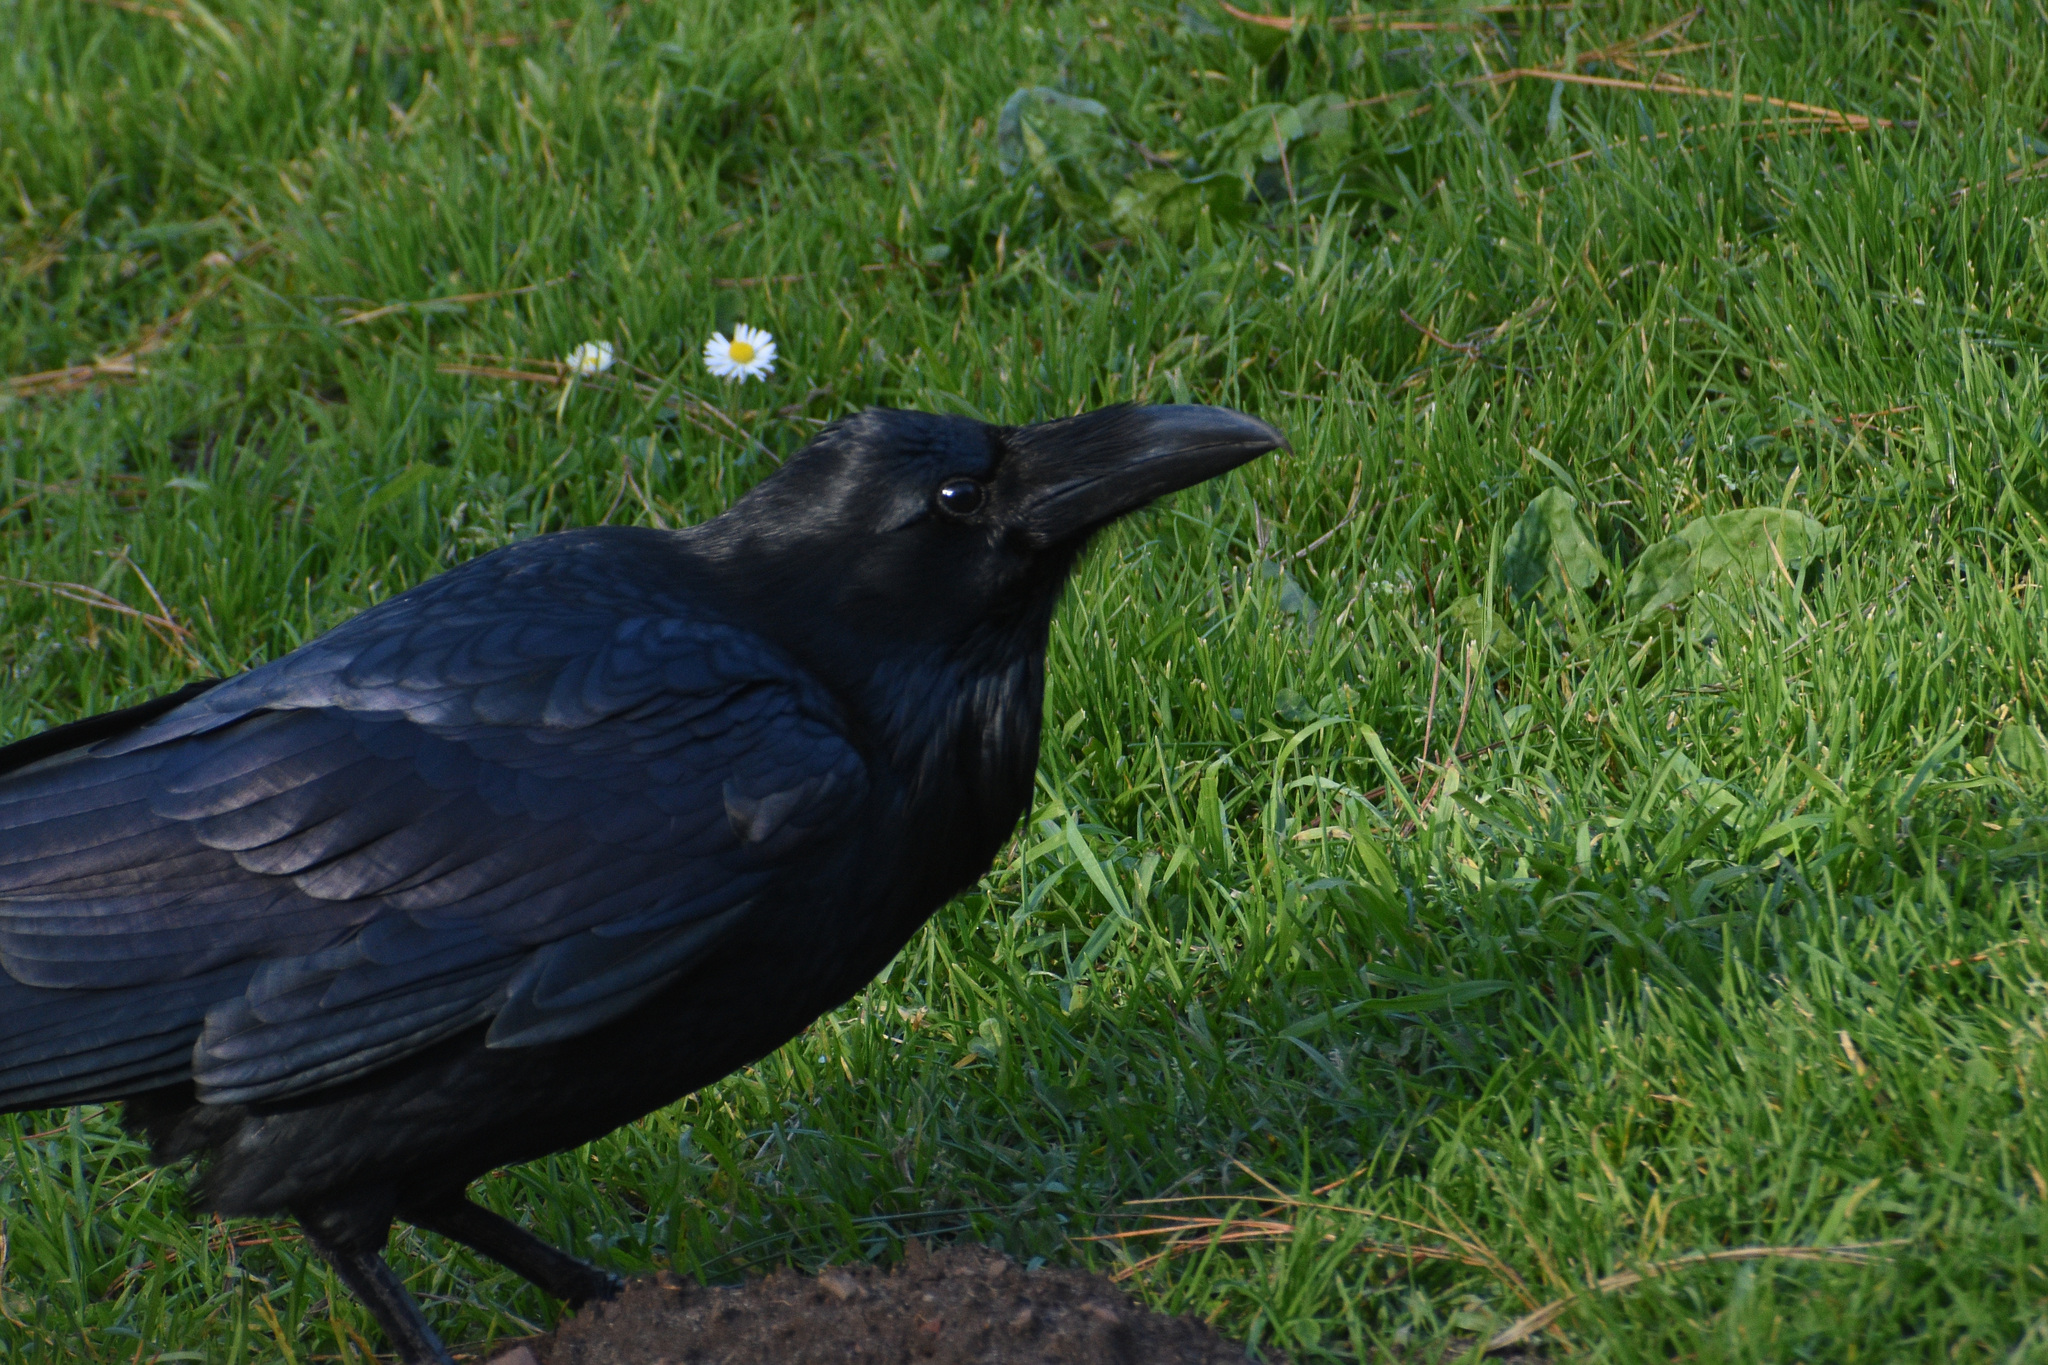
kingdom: Animalia
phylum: Chordata
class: Aves
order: Passeriformes
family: Corvidae
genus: Corvus
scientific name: Corvus corax
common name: Common raven
